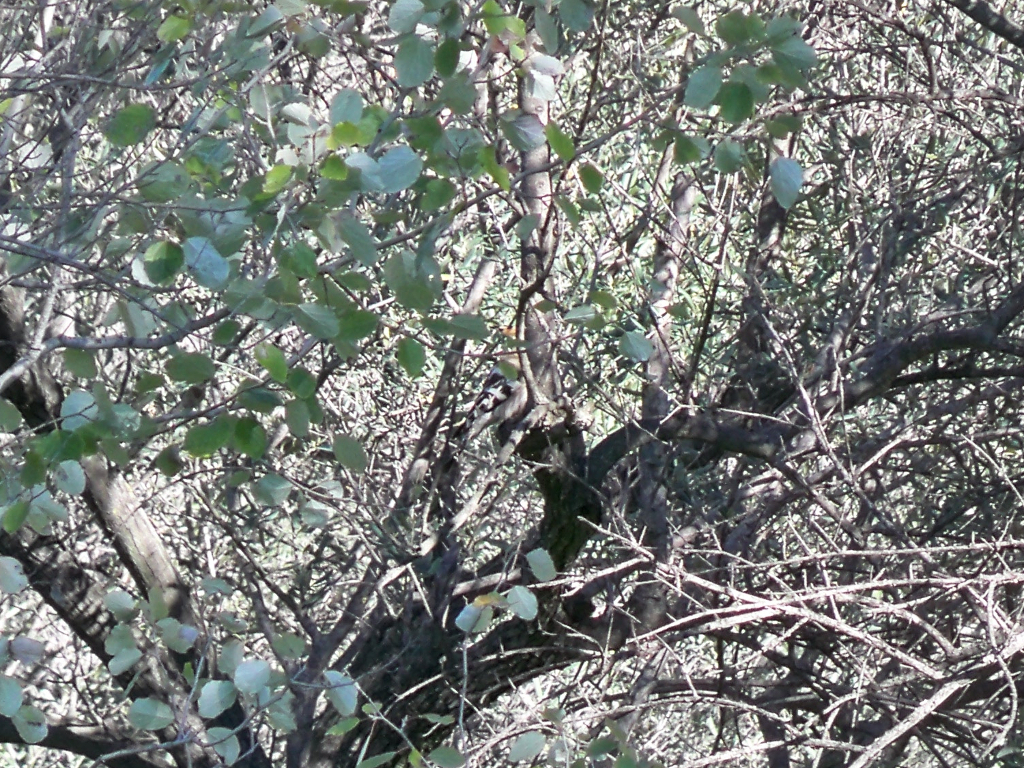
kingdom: Animalia
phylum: Chordata
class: Aves
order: Bucerotiformes
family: Upupidae
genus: Upupa
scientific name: Upupa epops
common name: Eurasian hoopoe
